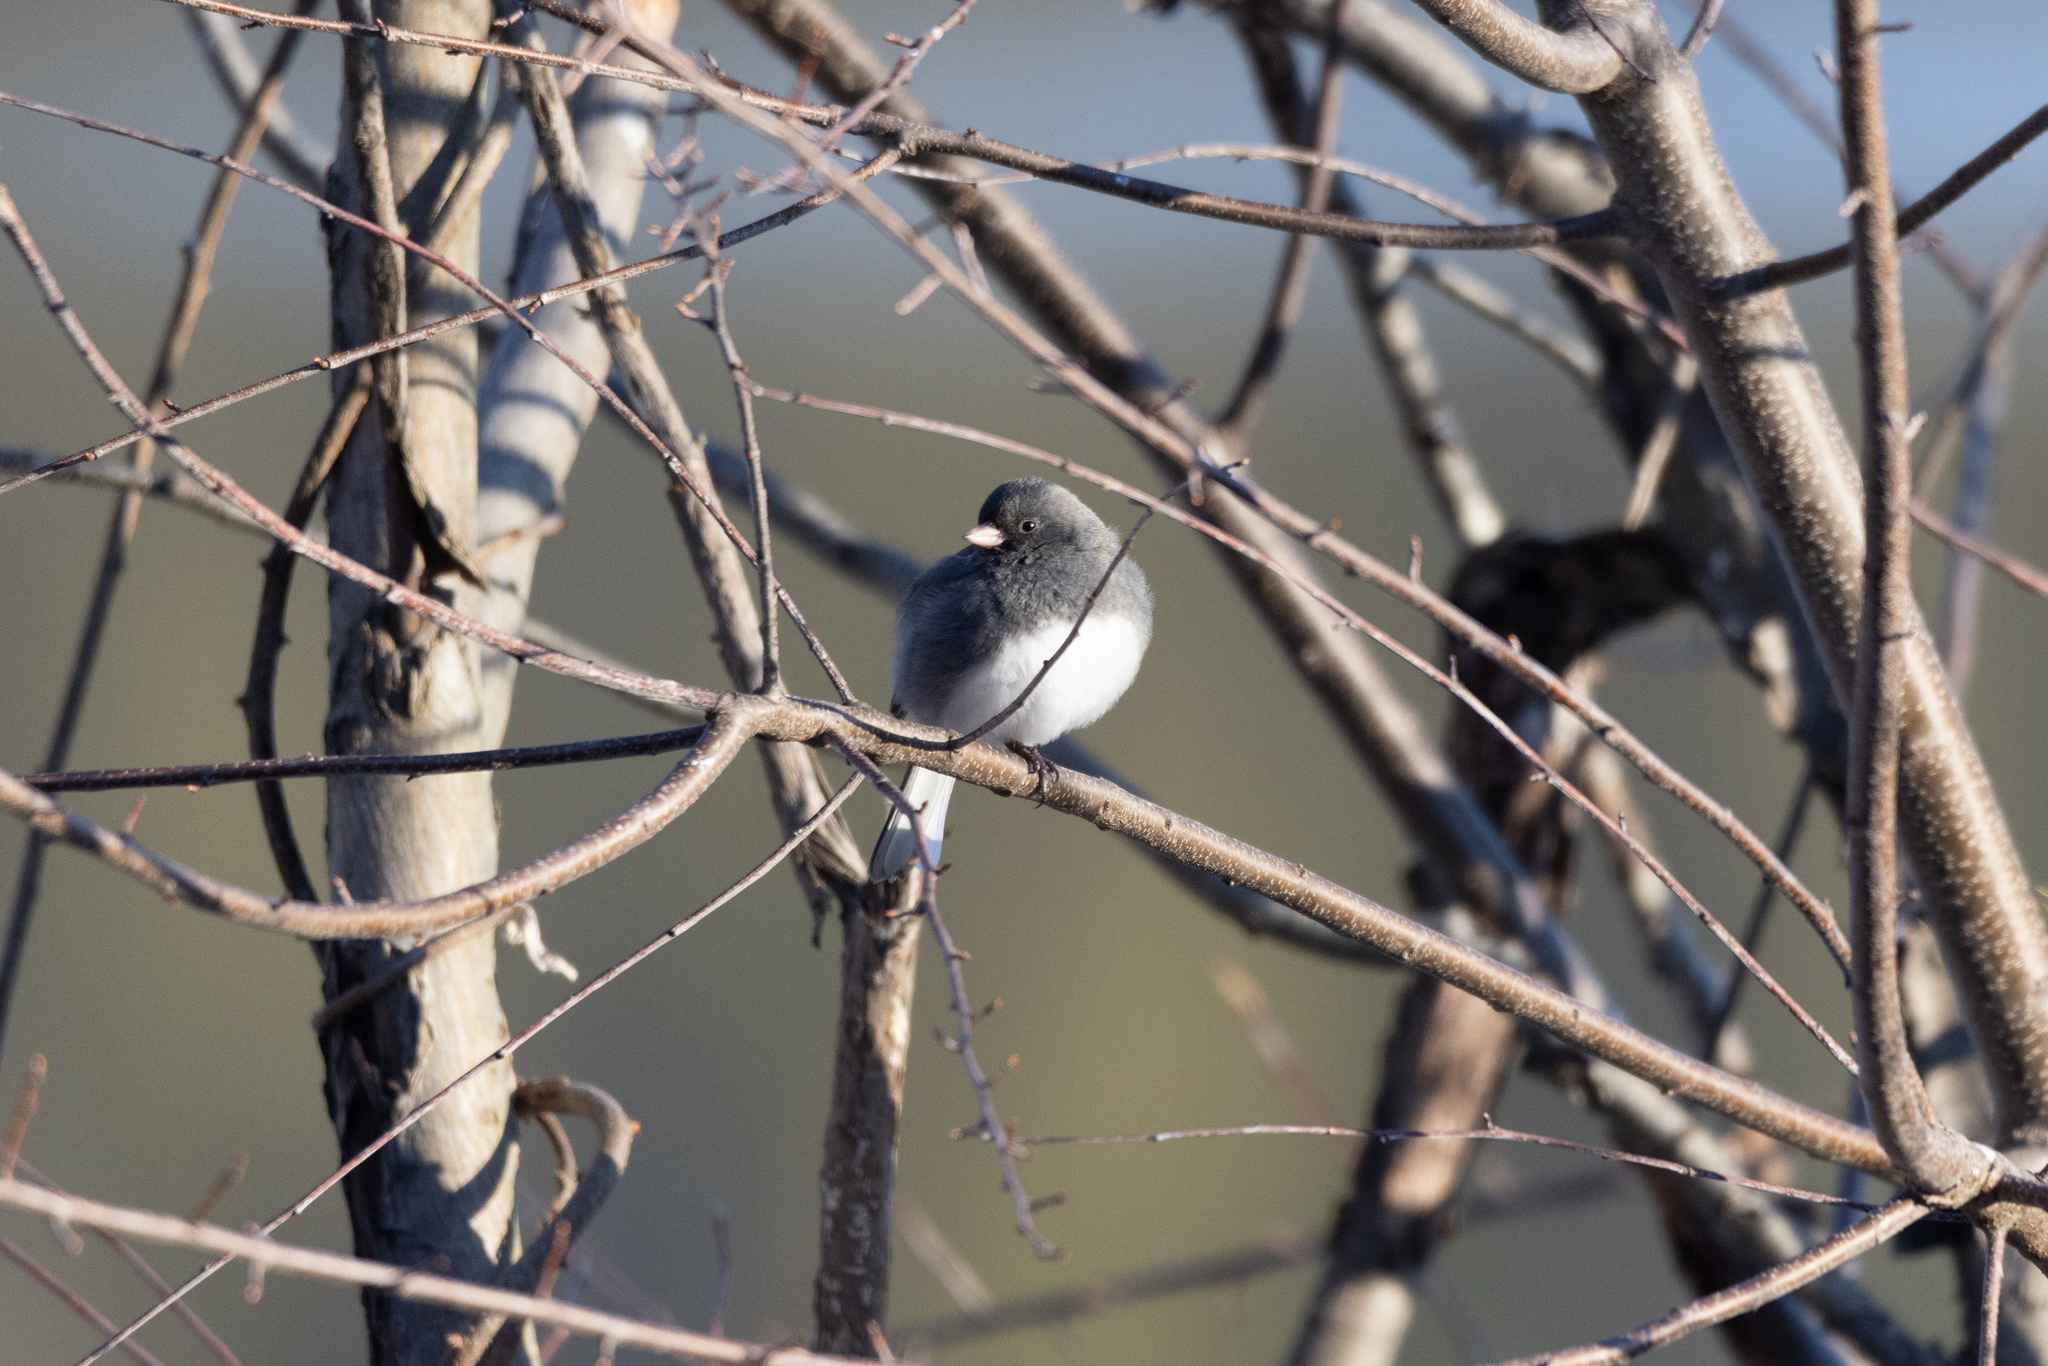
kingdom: Animalia
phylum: Chordata
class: Aves
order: Passeriformes
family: Passerellidae
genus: Junco
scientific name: Junco hyemalis
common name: Dark-eyed junco
